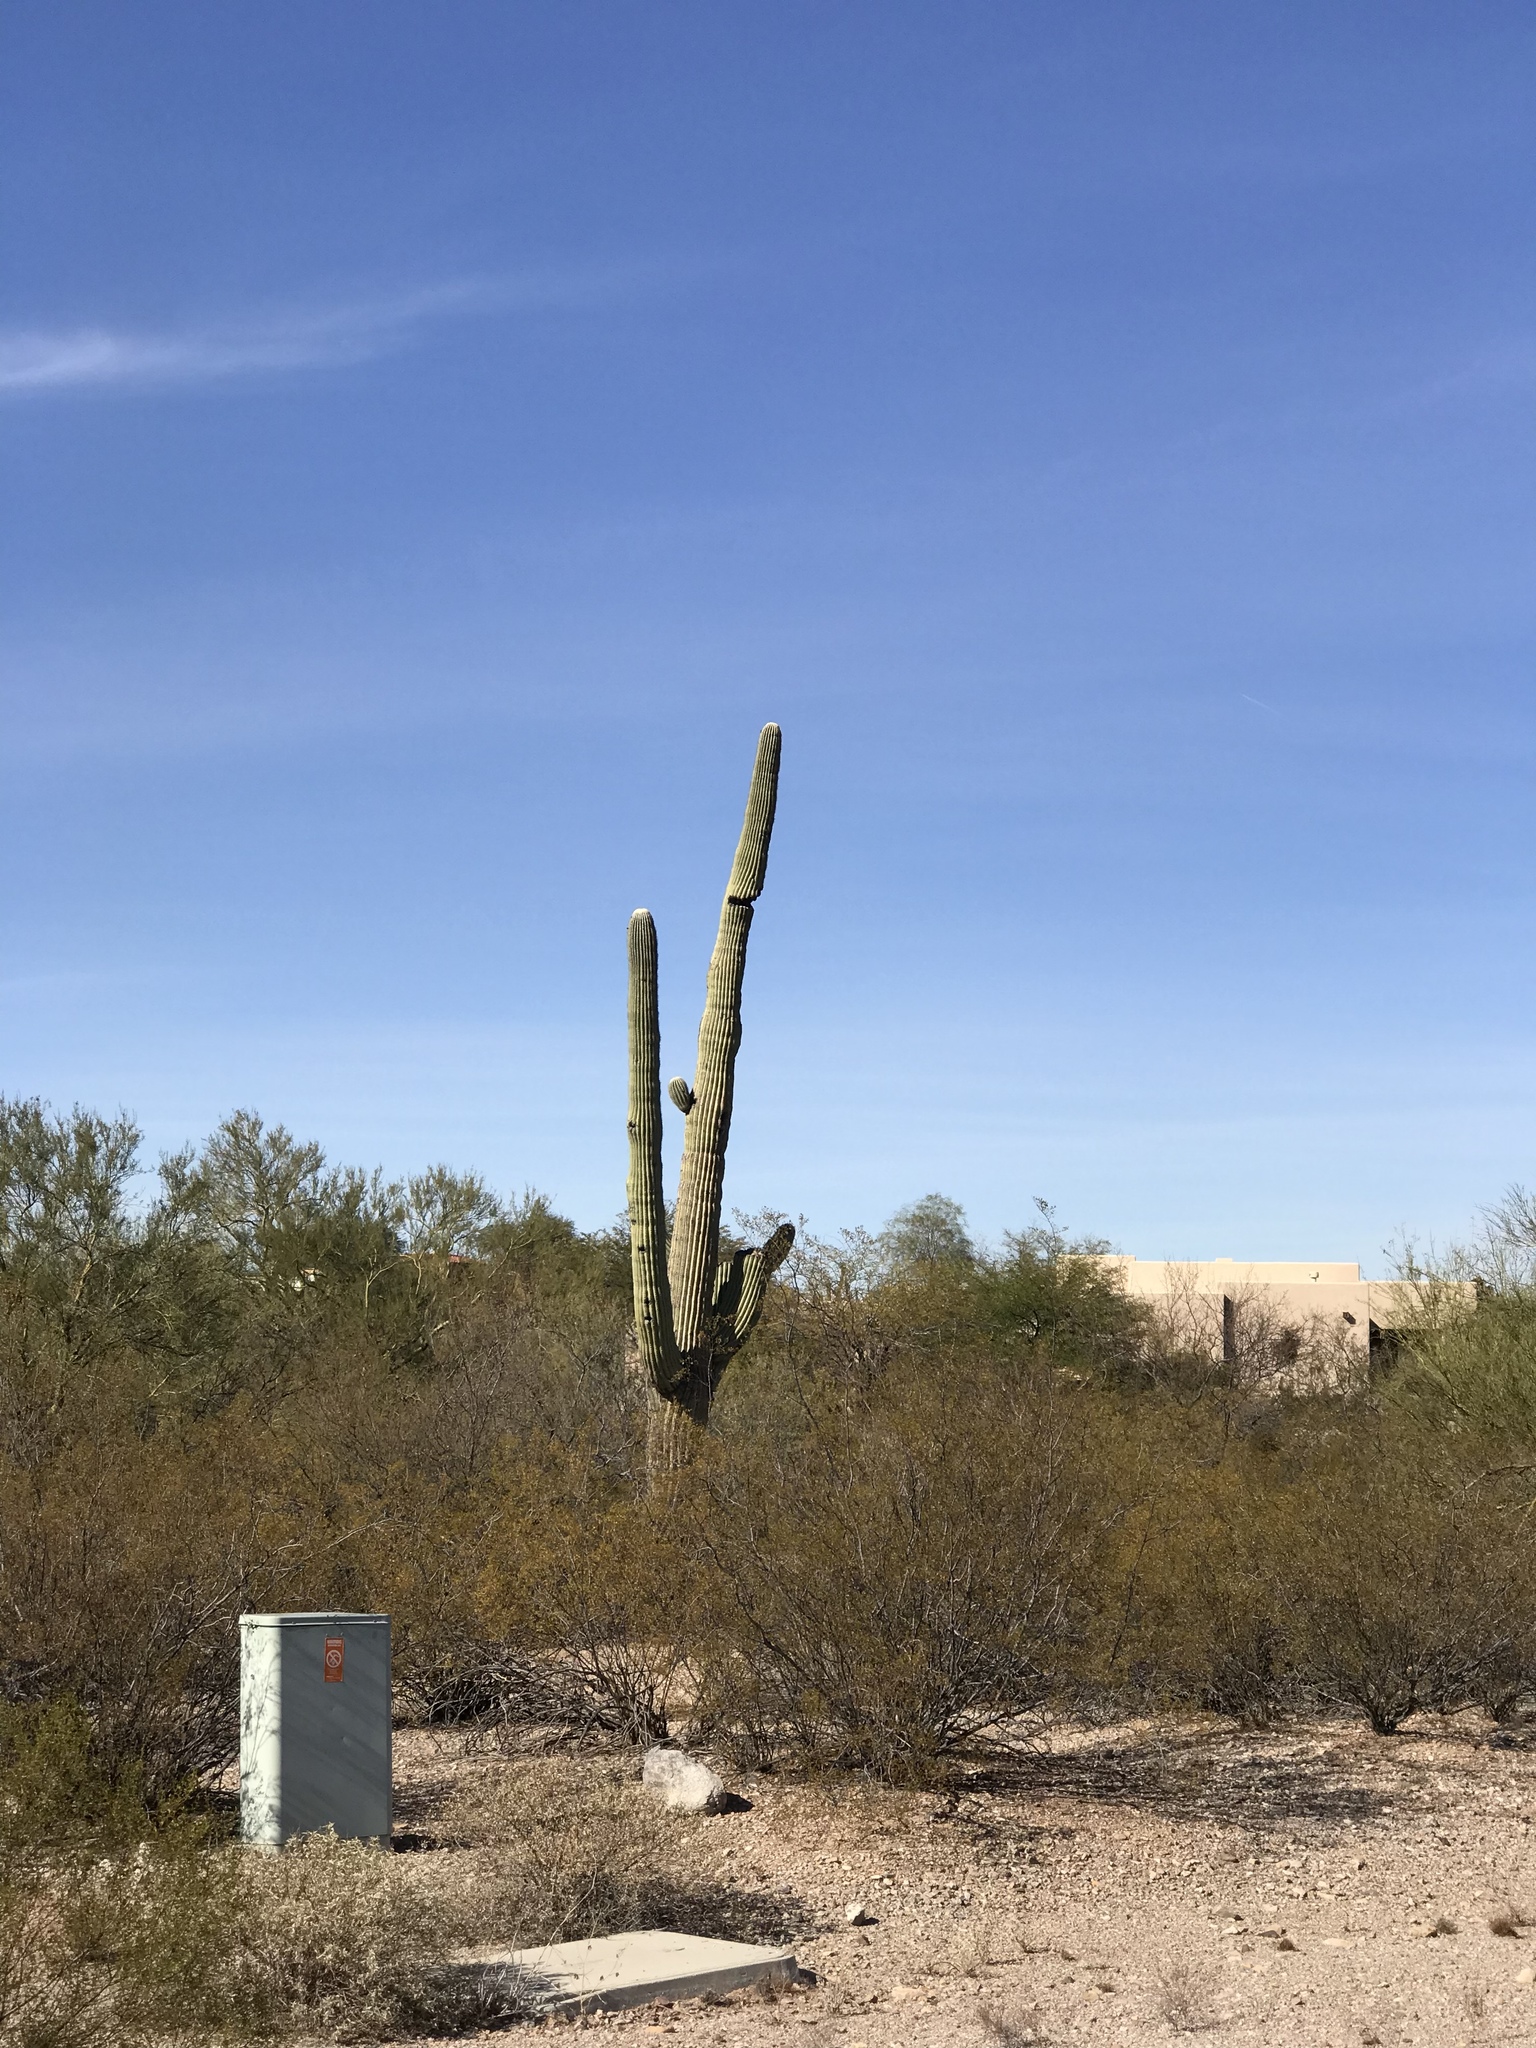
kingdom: Plantae
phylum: Tracheophyta
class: Magnoliopsida
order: Caryophyllales
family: Cactaceae
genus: Carnegiea
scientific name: Carnegiea gigantea
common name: Saguaro
